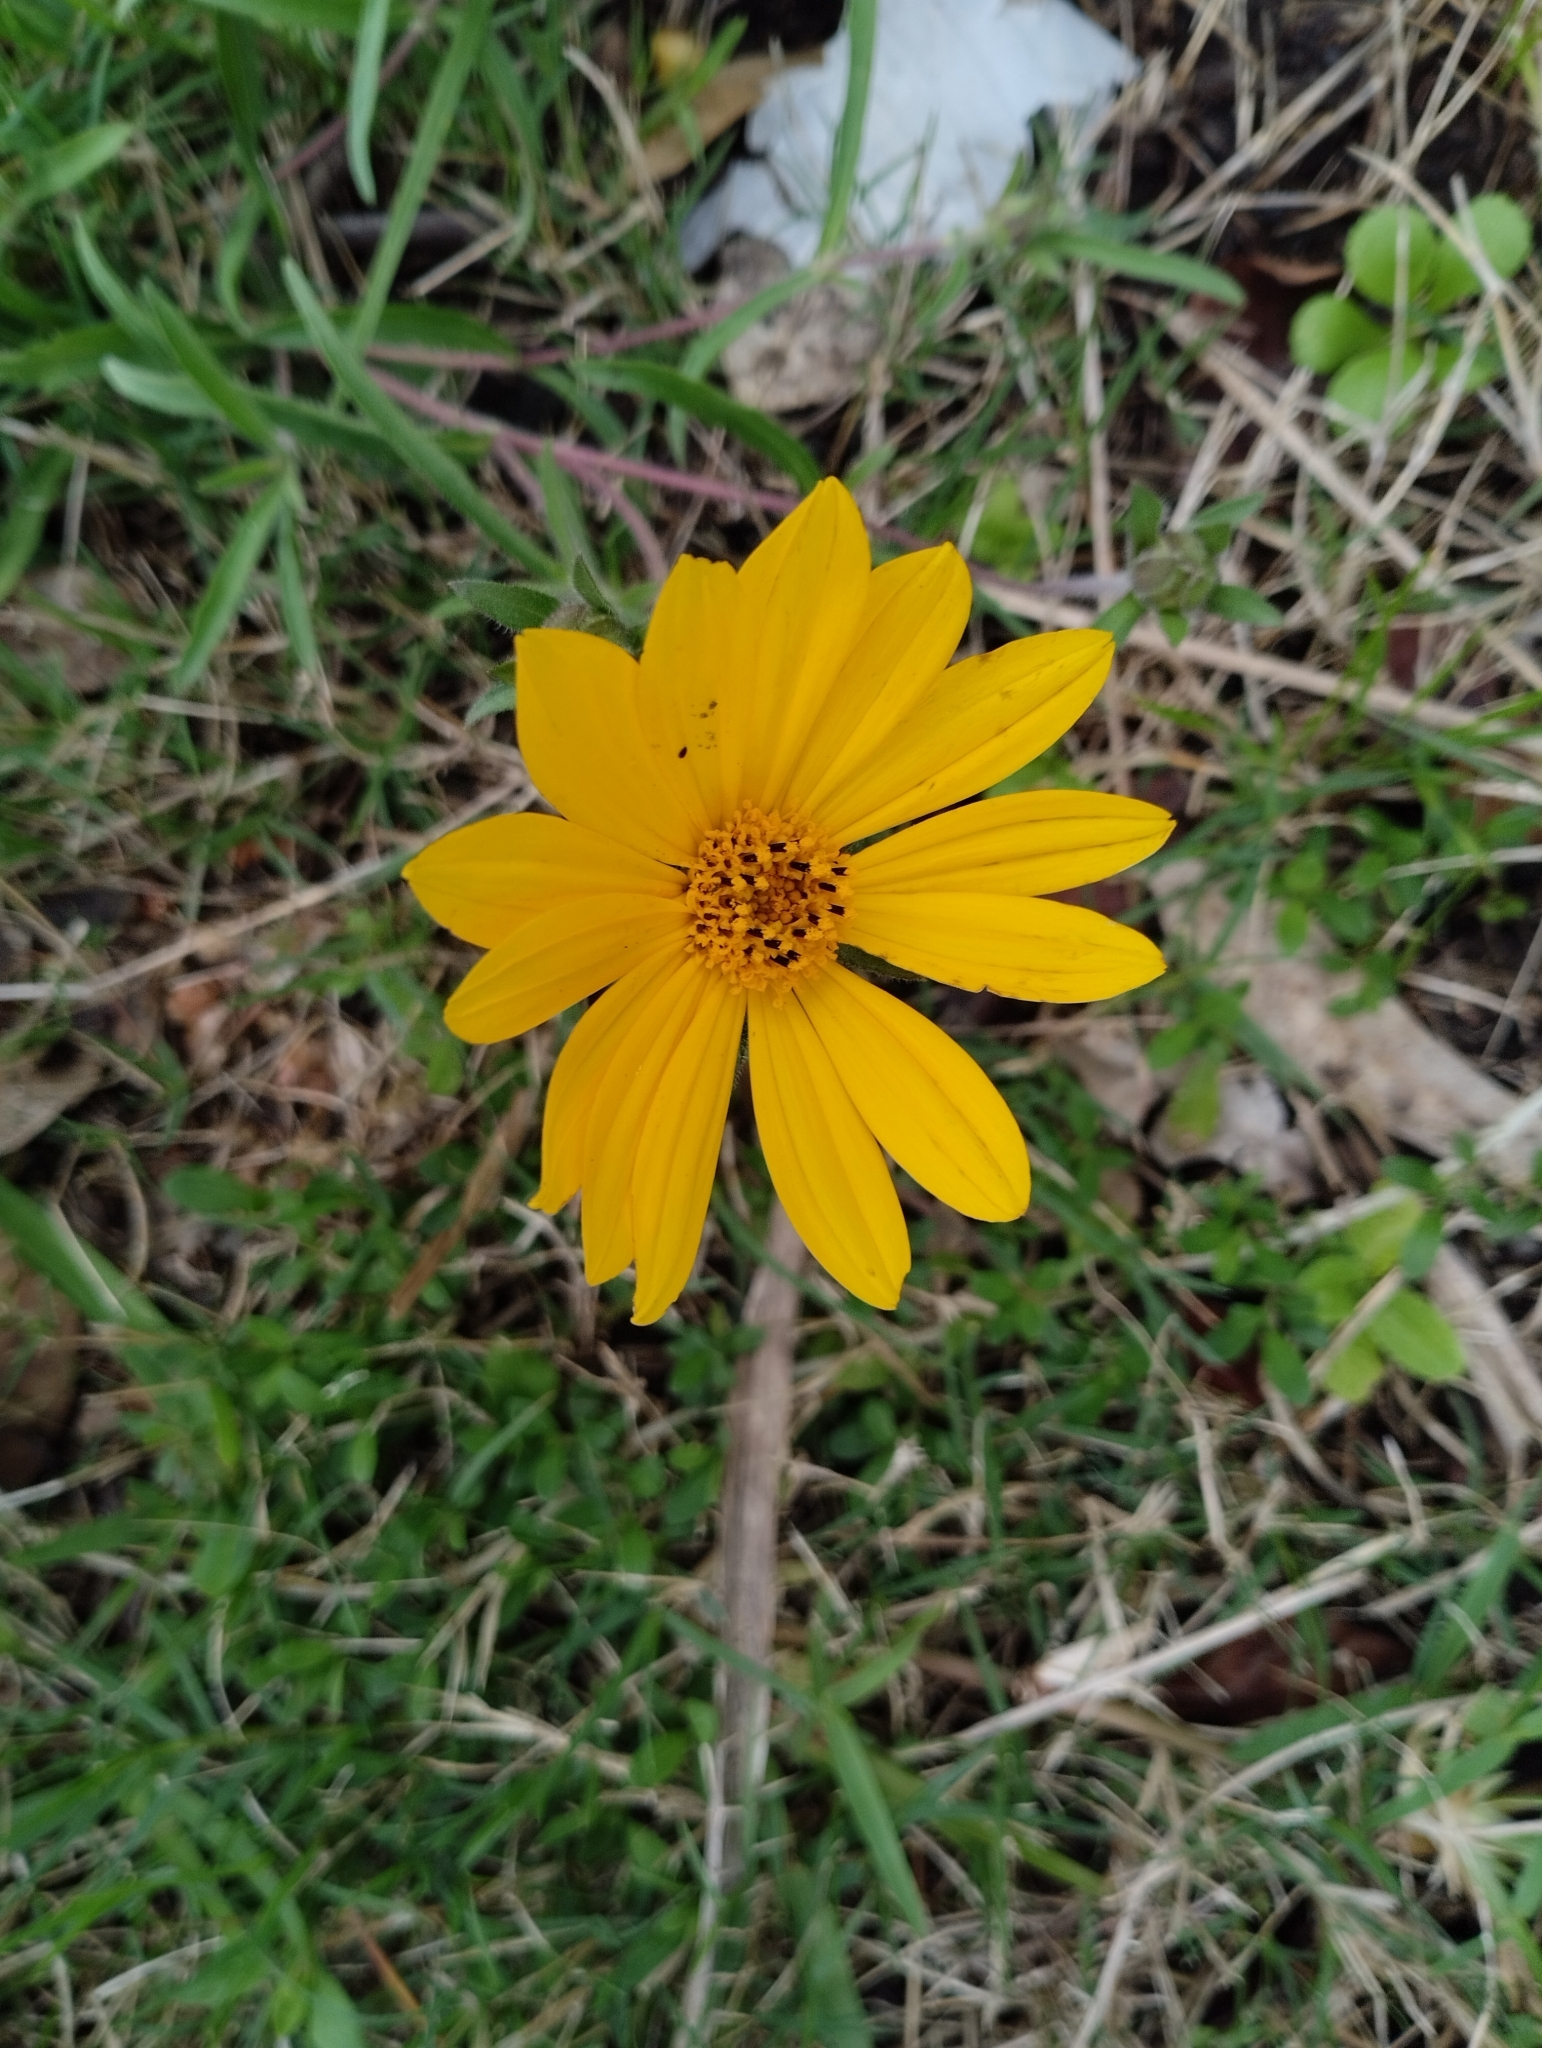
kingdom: Plantae
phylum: Tracheophyta
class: Magnoliopsida
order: Asterales
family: Asteraceae
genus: Wedelia
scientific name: Wedelia montevidensis
